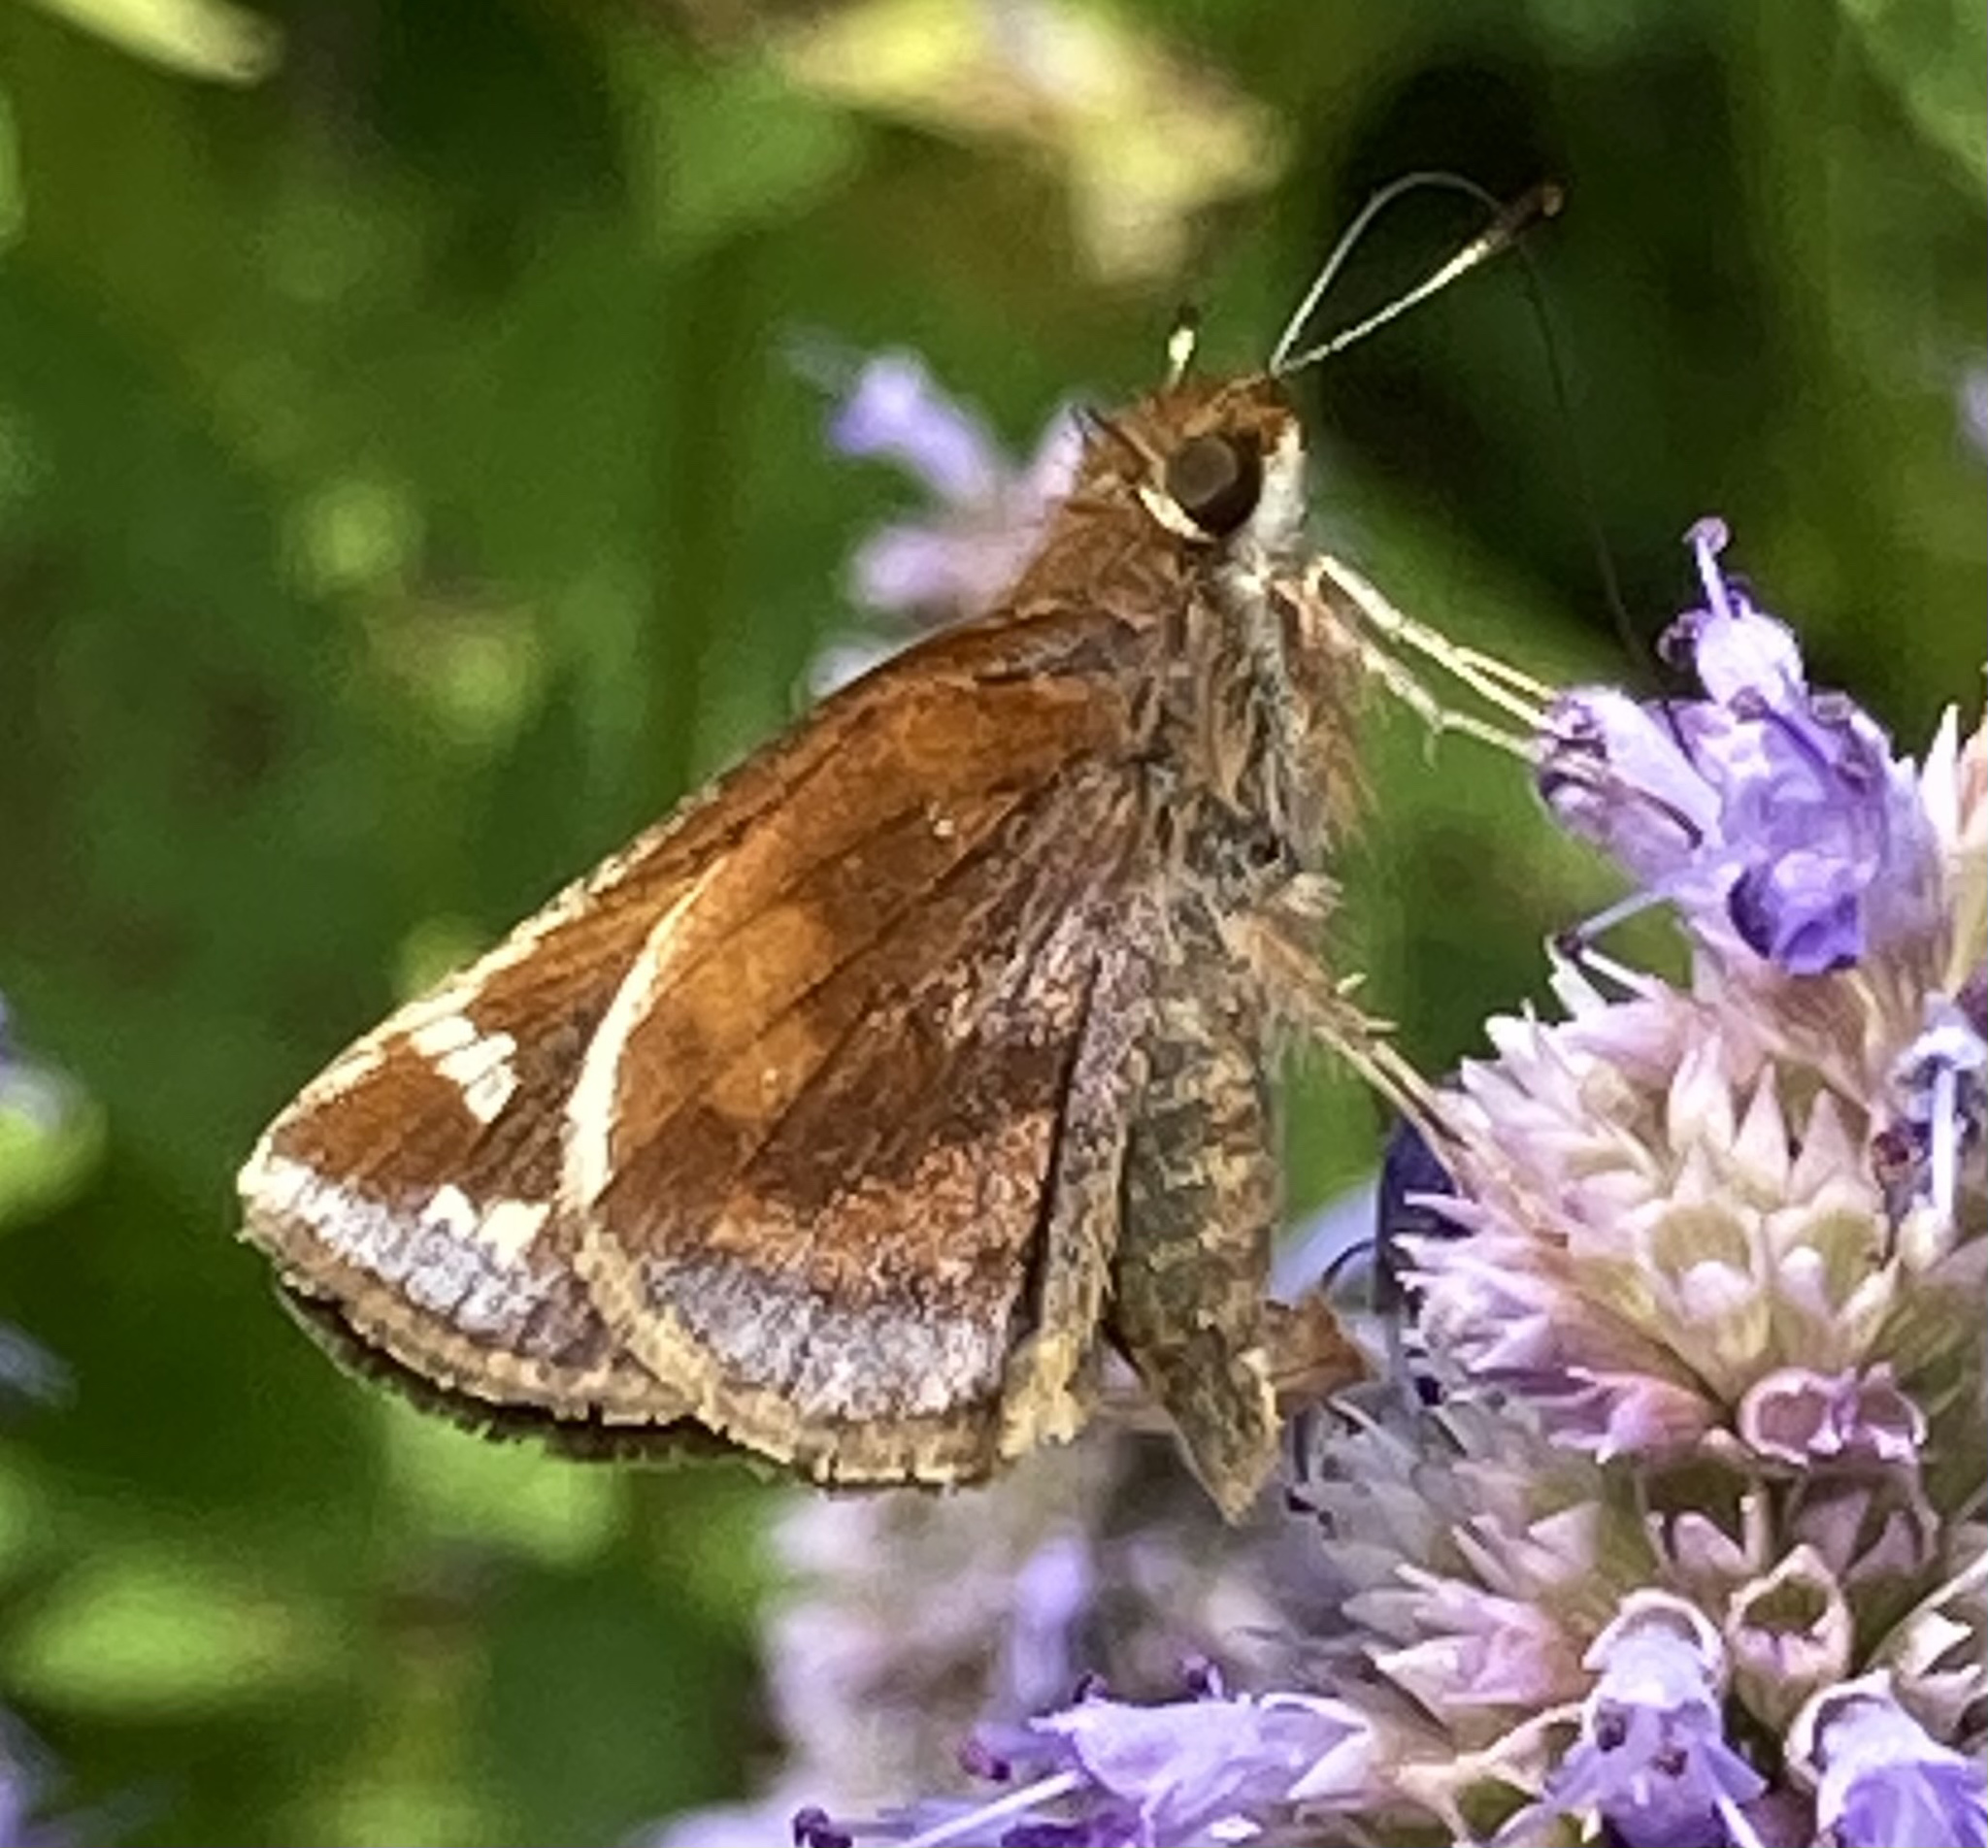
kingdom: Animalia
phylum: Arthropoda
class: Insecta
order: Lepidoptera
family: Hesperiidae
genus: Lon
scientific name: Lon zabulon
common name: Zabulon skipper
